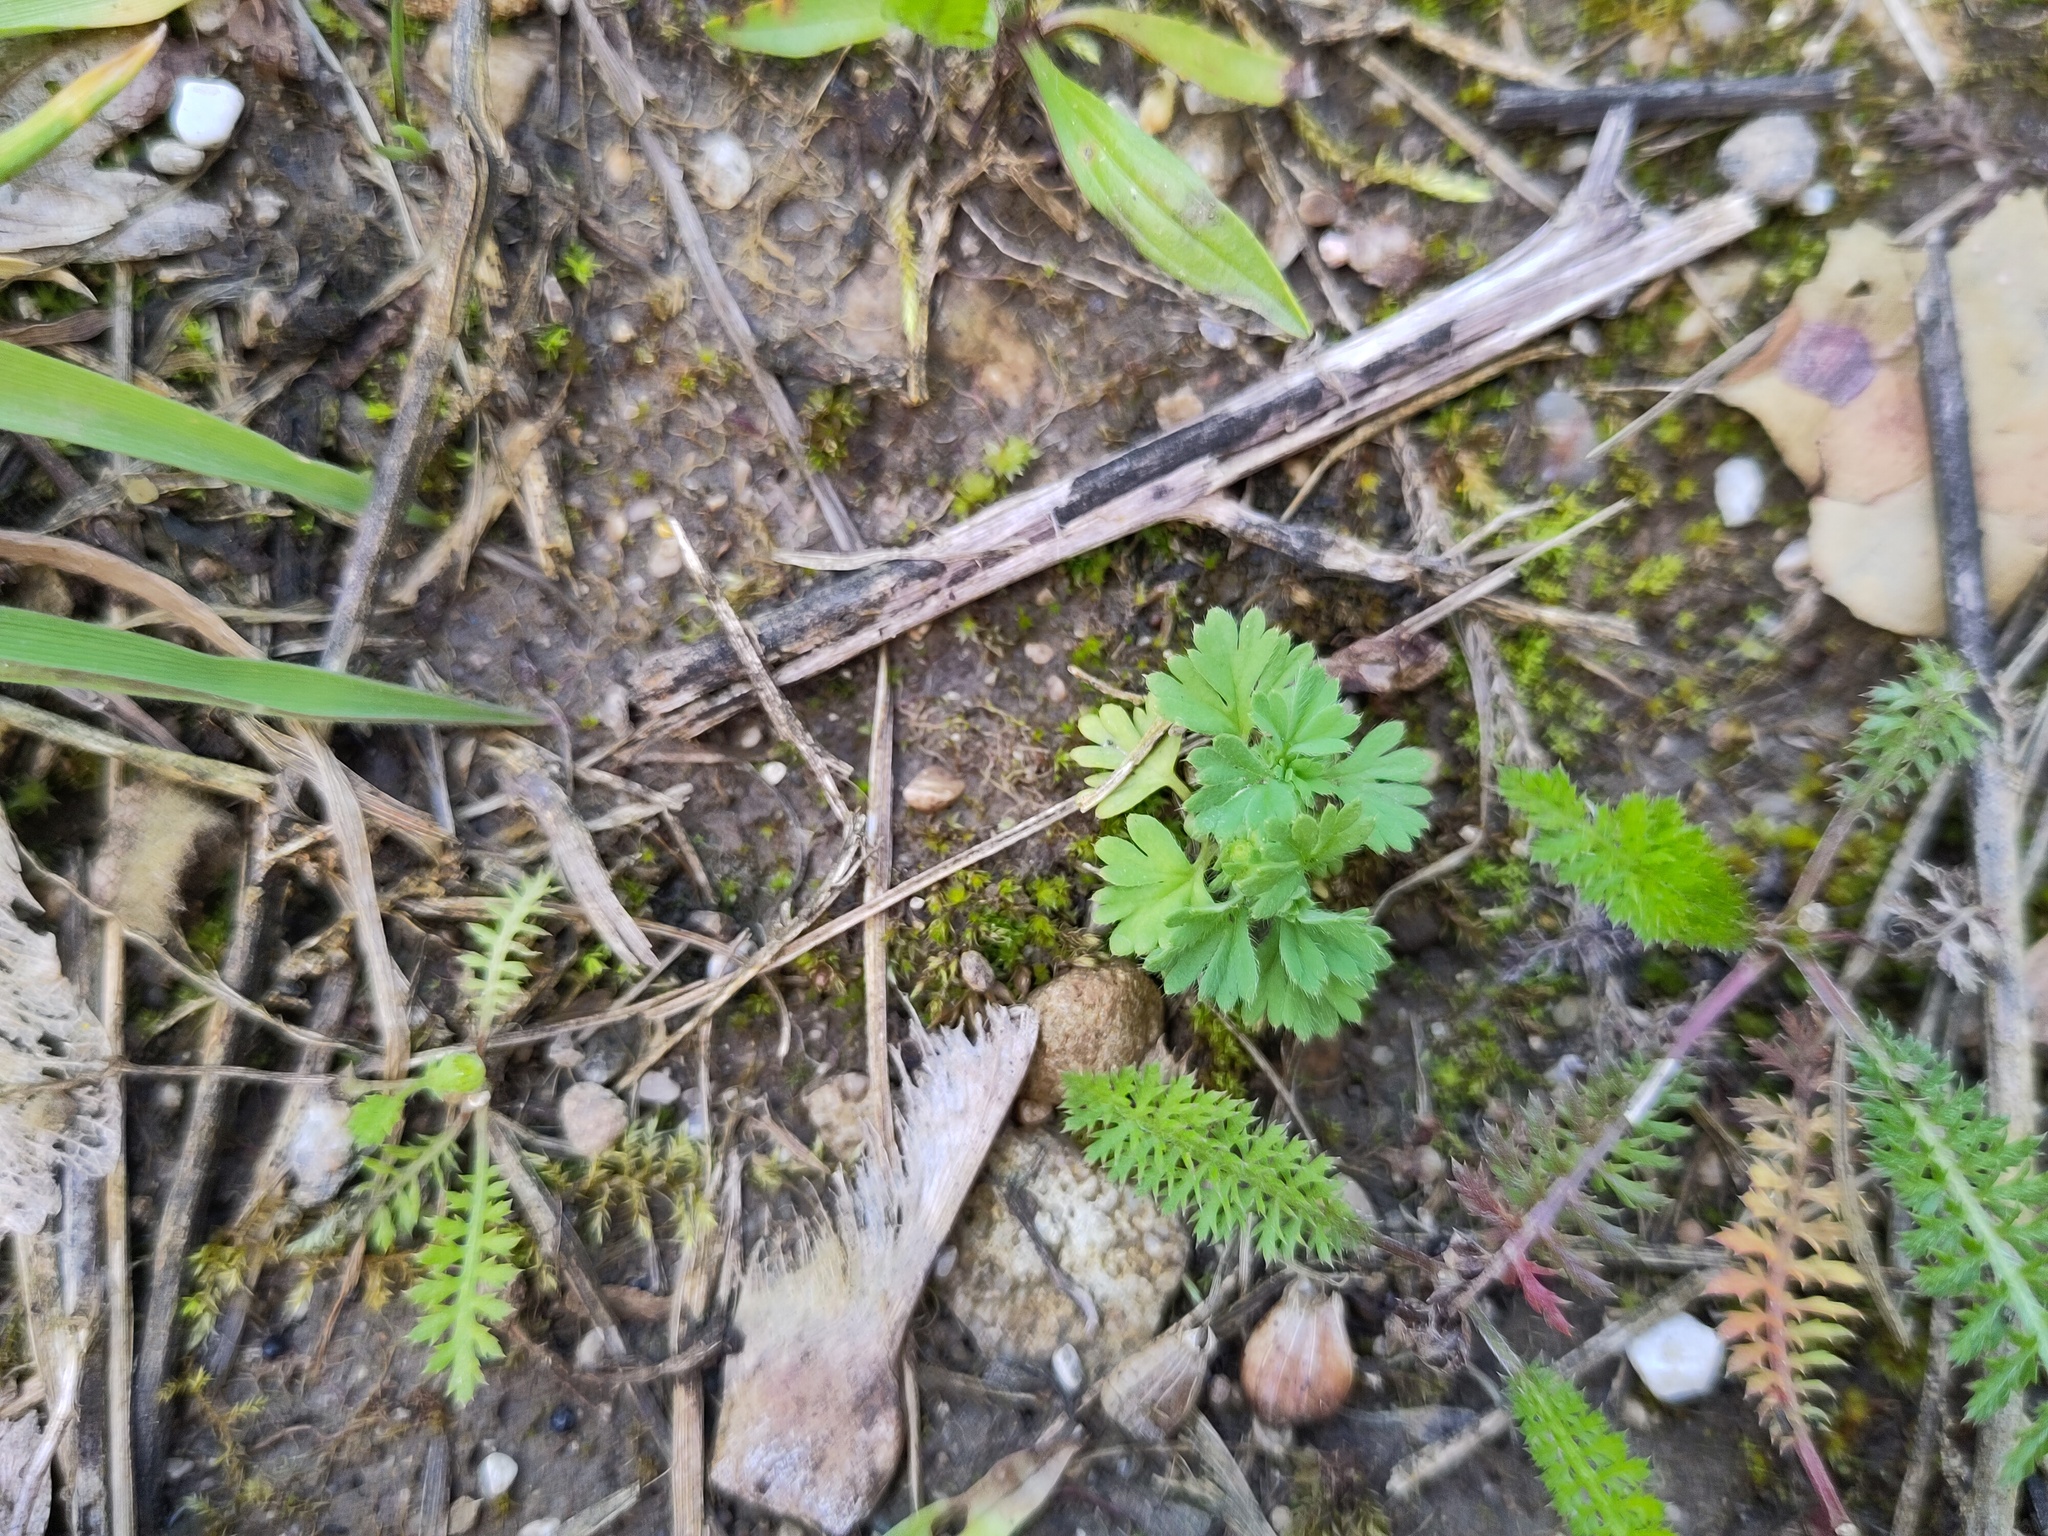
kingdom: Plantae
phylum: Tracheophyta
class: Magnoliopsida
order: Rosales
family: Rosaceae
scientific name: Rosaceae
